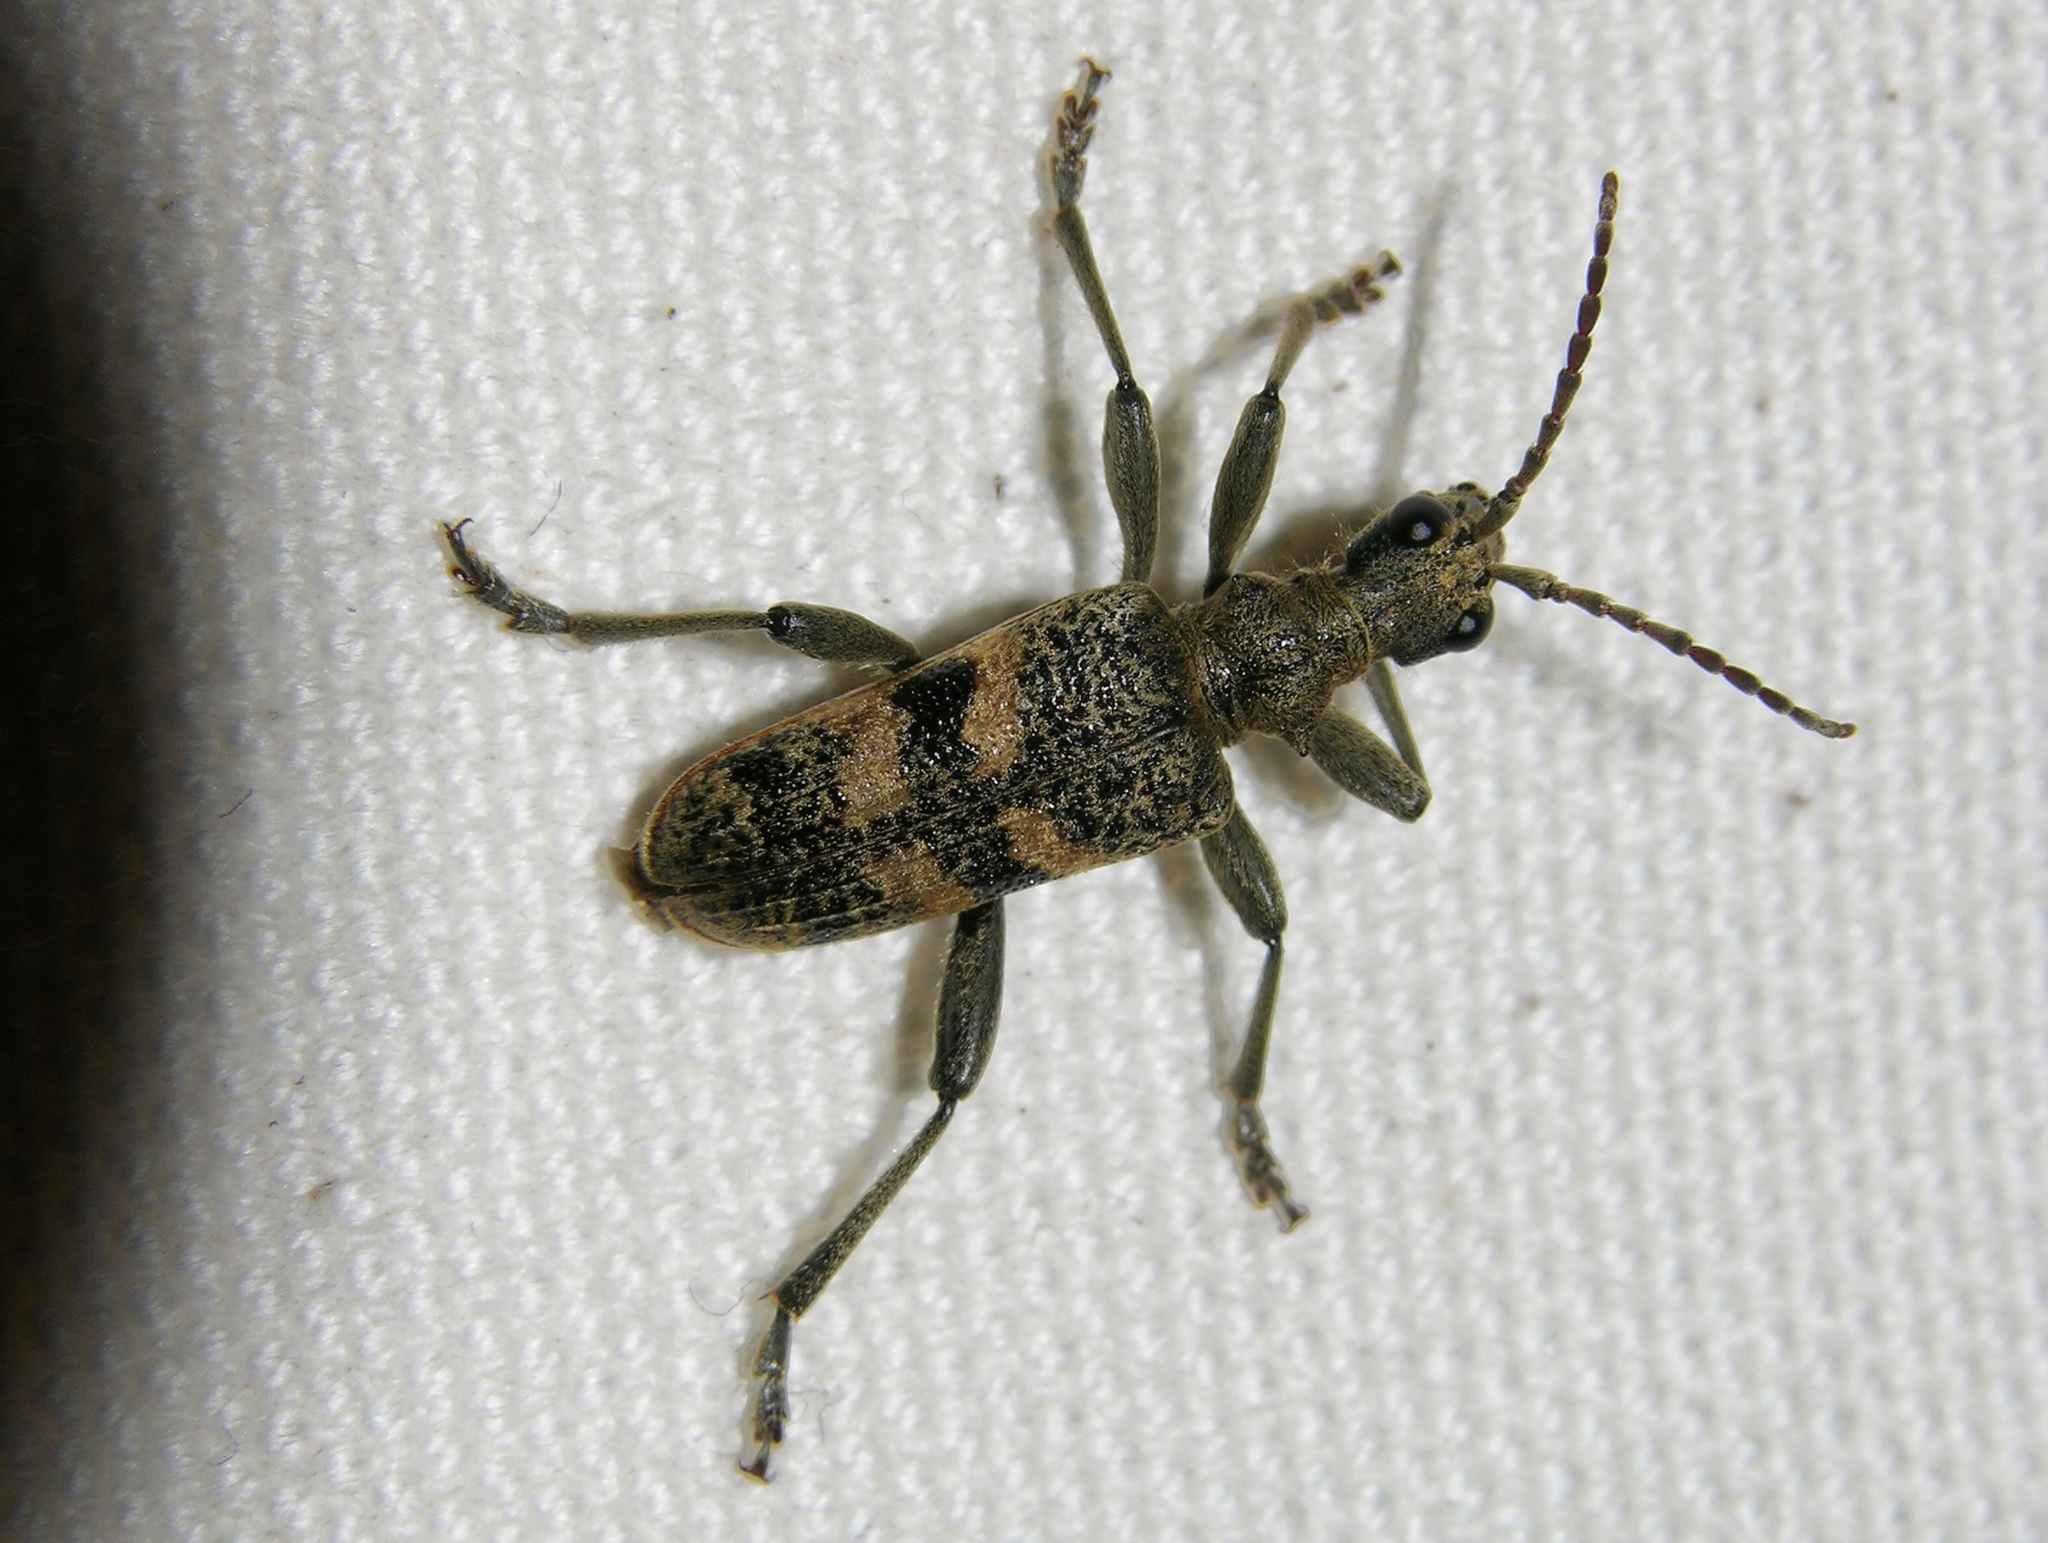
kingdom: Animalia
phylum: Arthropoda
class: Insecta
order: Coleoptera
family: Cerambycidae
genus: Rhagium
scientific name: Rhagium mordax
